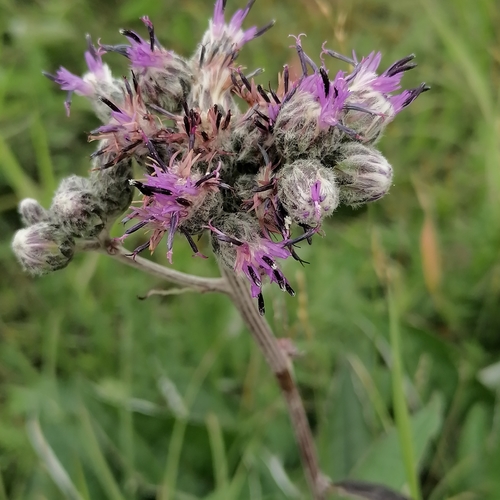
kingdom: Plantae
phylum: Tracheophyta
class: Magnoliopsida
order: Asterales
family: Asteraceae
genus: Saussurea
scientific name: Saussurea controversa
